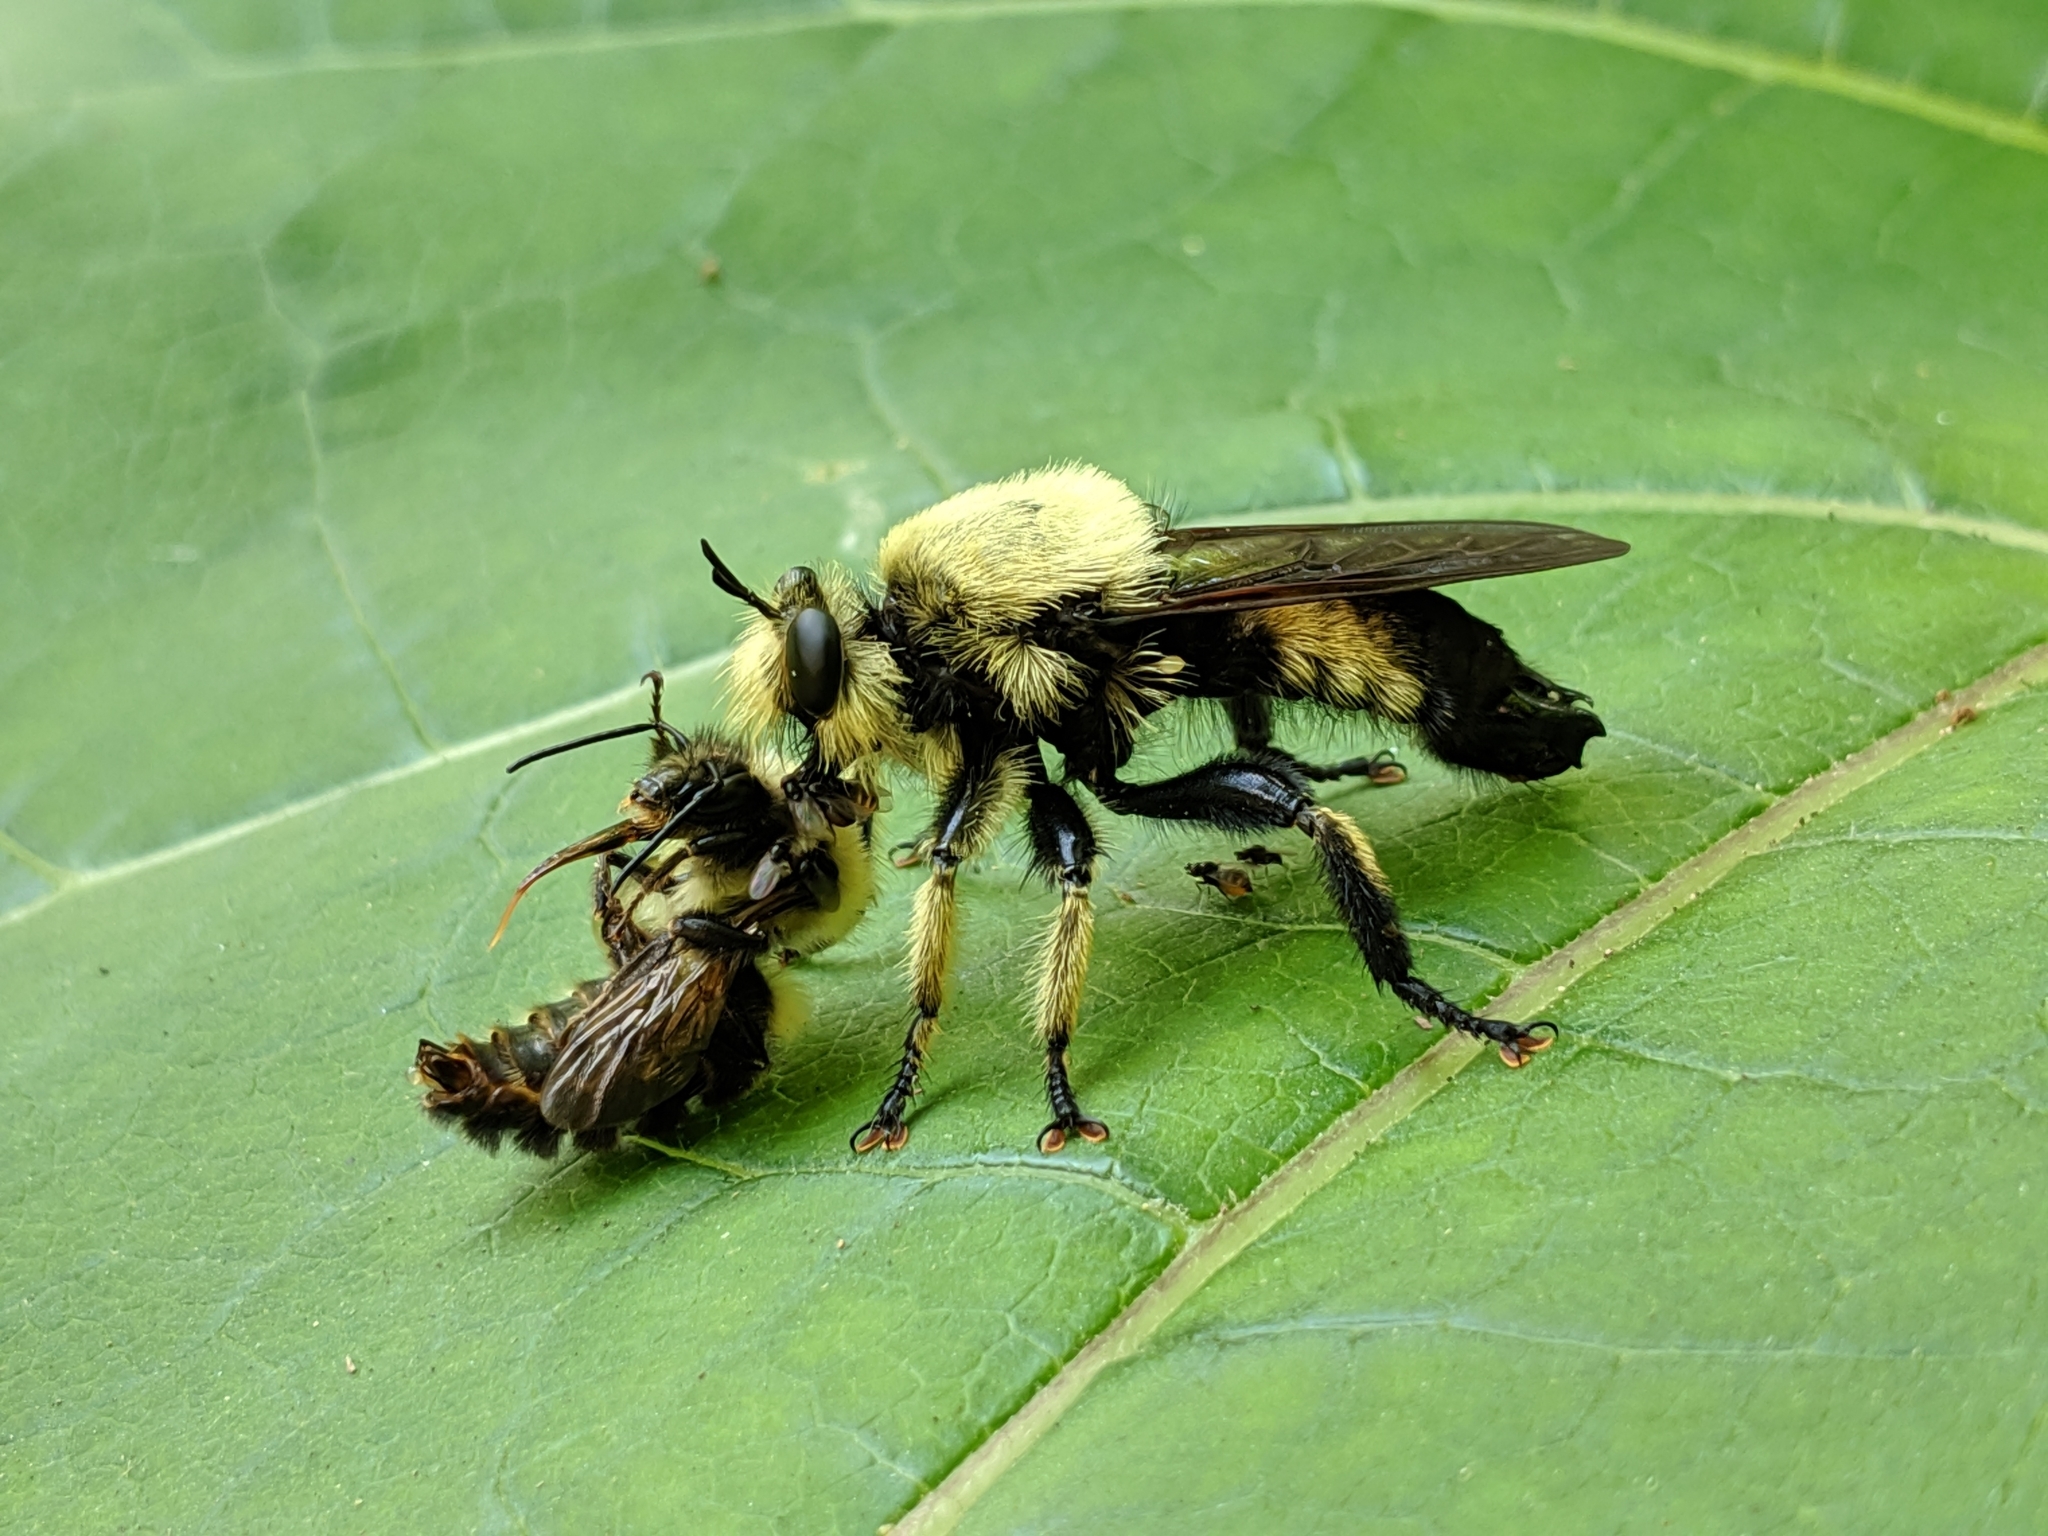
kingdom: Animalia
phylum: Arthropoda
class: Insecta
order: Diptera
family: Asilidae
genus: Laphria
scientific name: Laphria grossa
